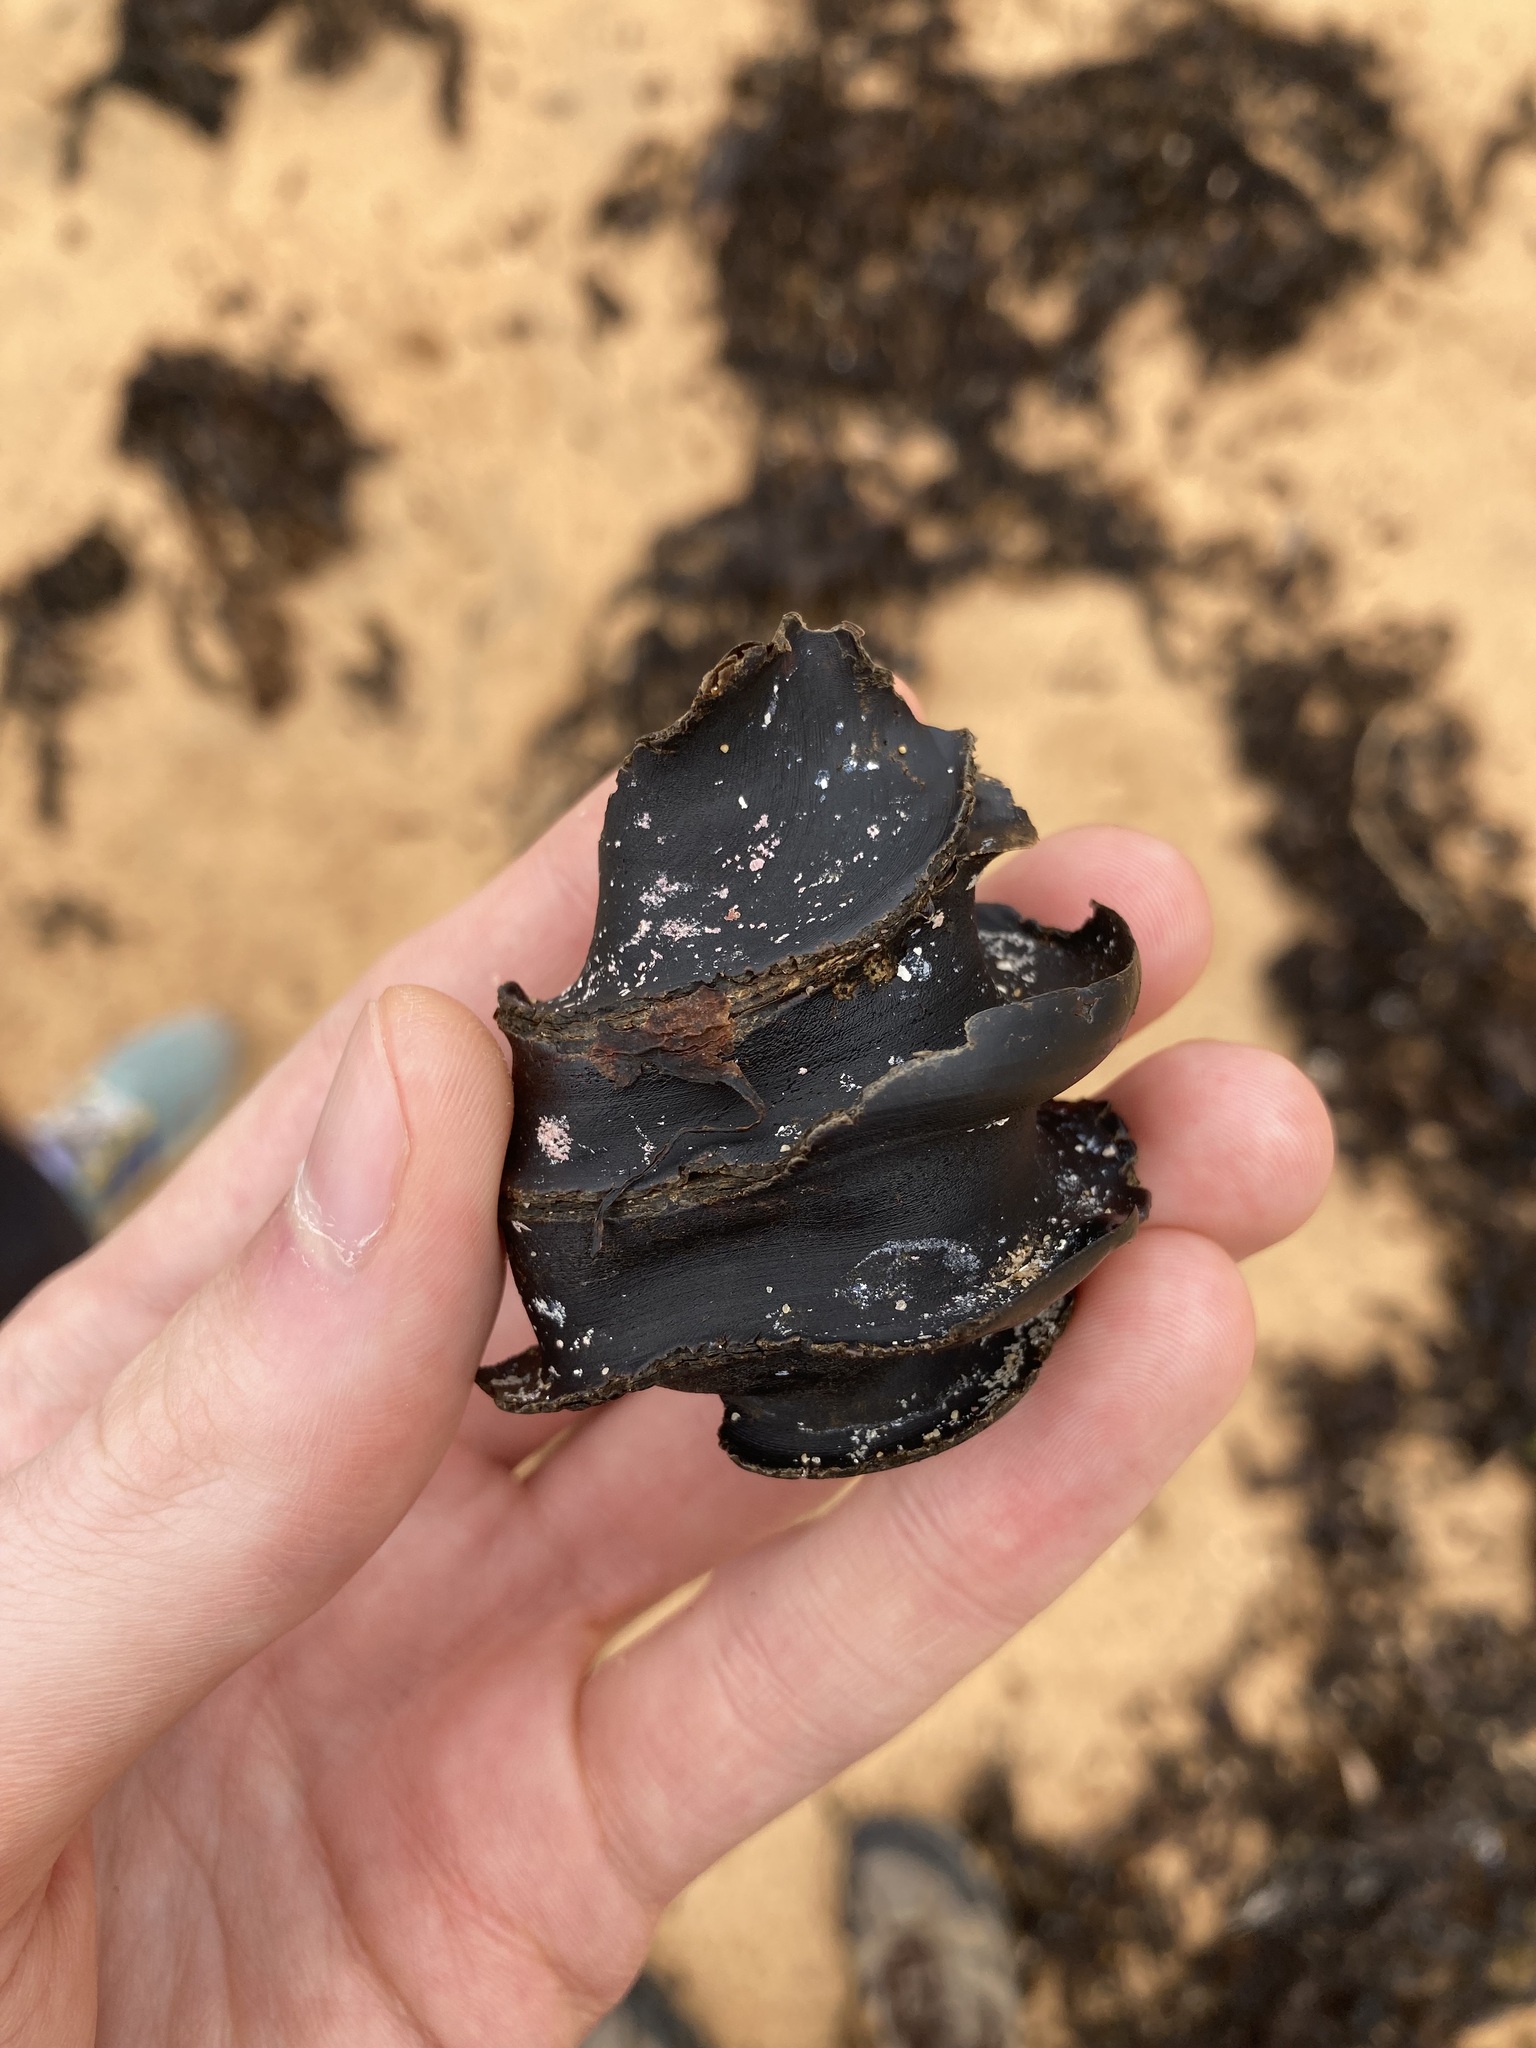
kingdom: Animalia
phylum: Chordata
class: Elasmobranchii
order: Heterodontiformes
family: Heterodontidae
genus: Heterodontus
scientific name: Heterodontus galeatus
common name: Crested bullhead shark
